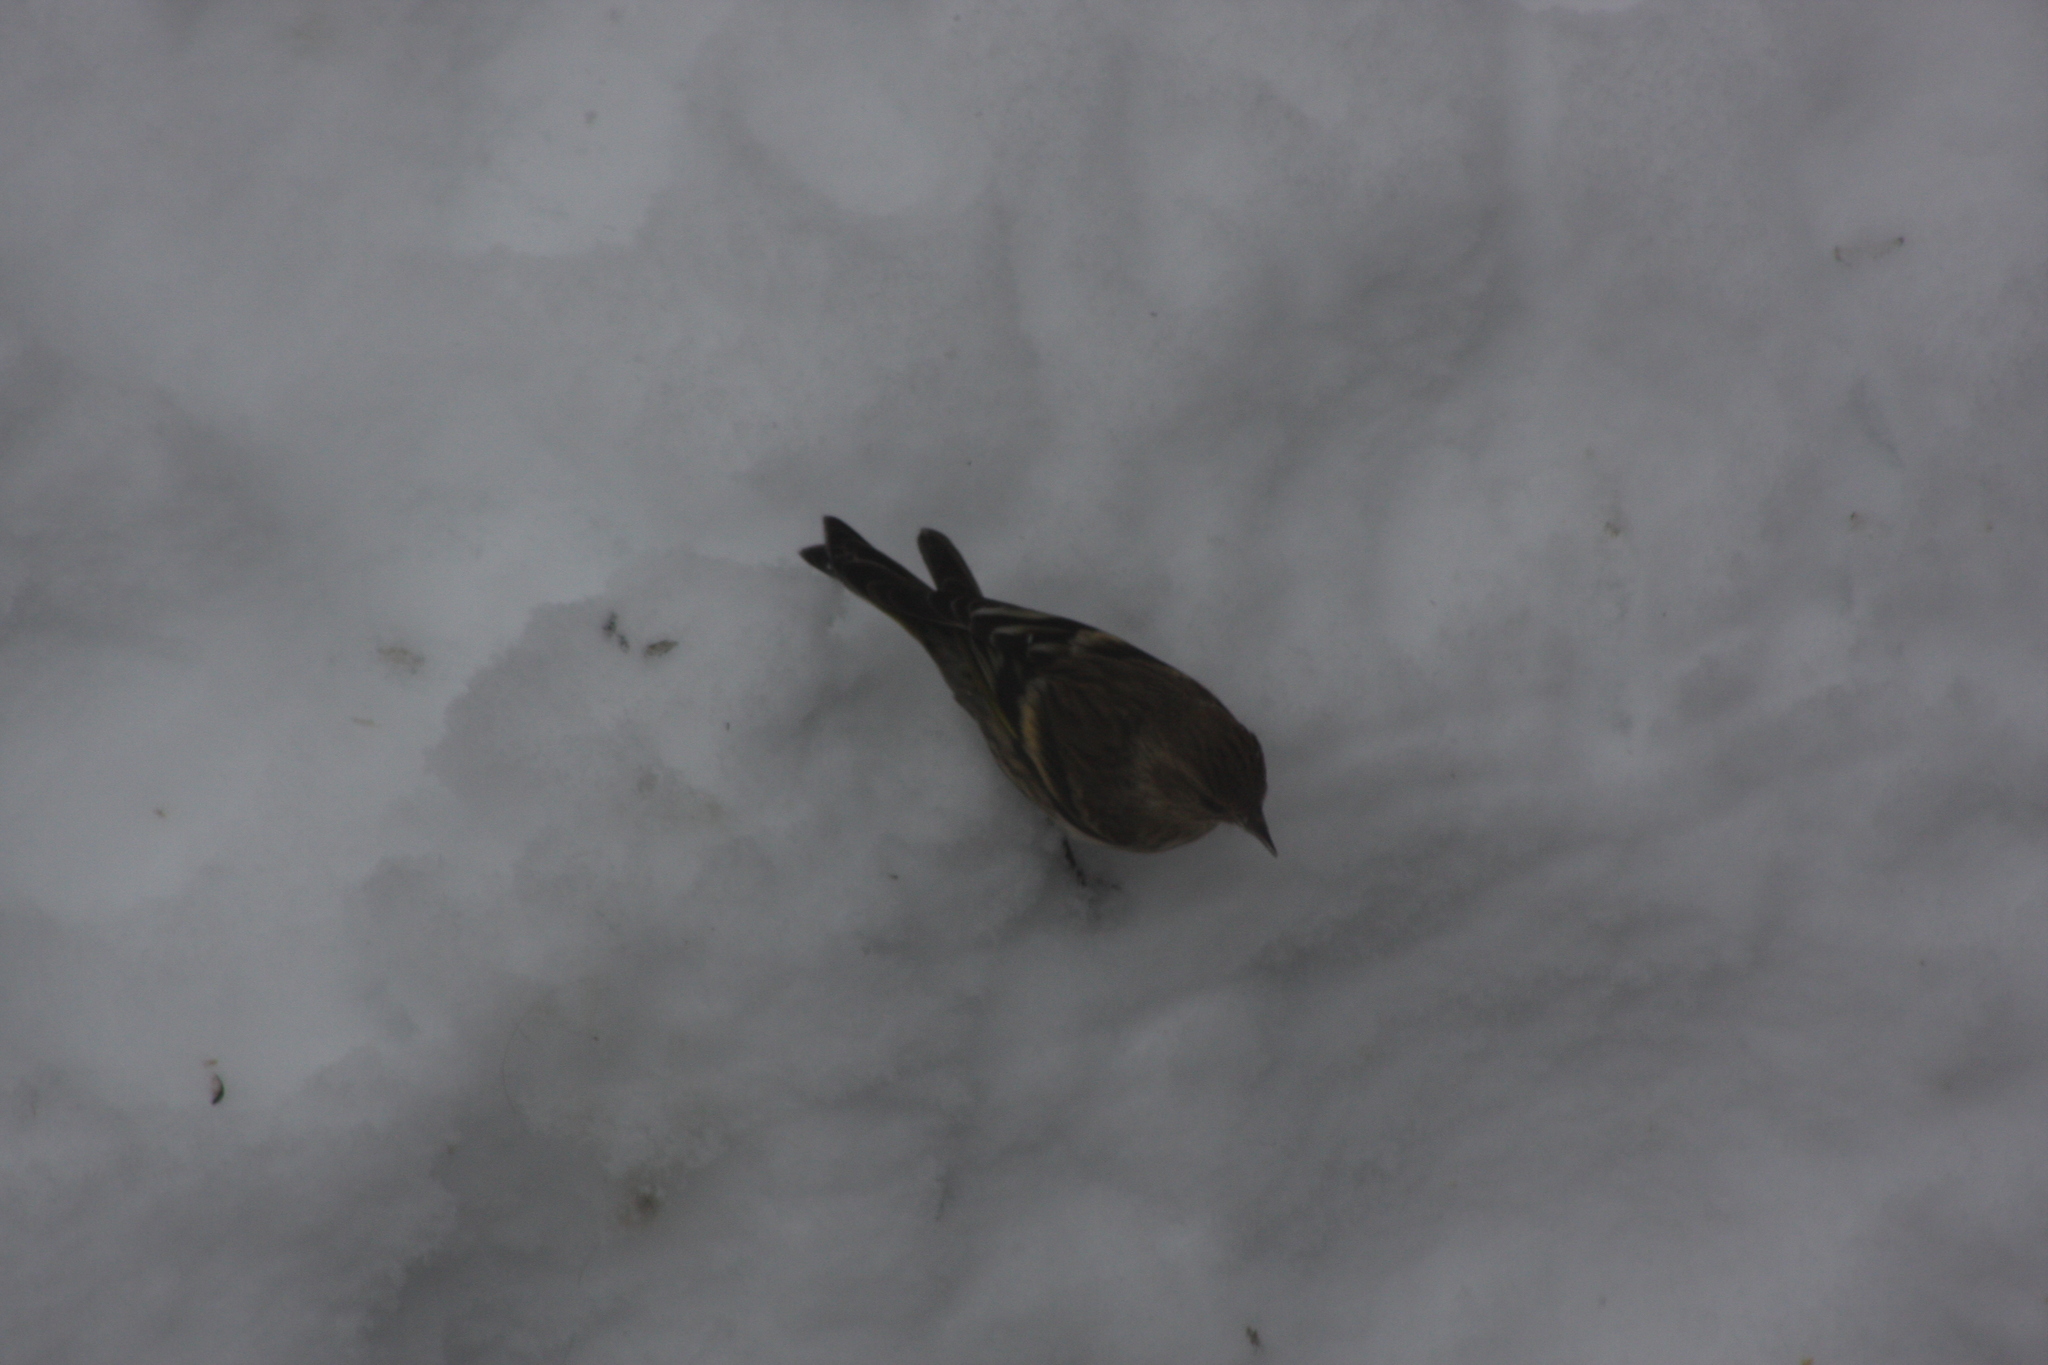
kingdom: Animalia
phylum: Chordata
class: Aves
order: Passeriformes
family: Fringillidae
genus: Spinus
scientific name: Spinus tristis
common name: American goldfinch
